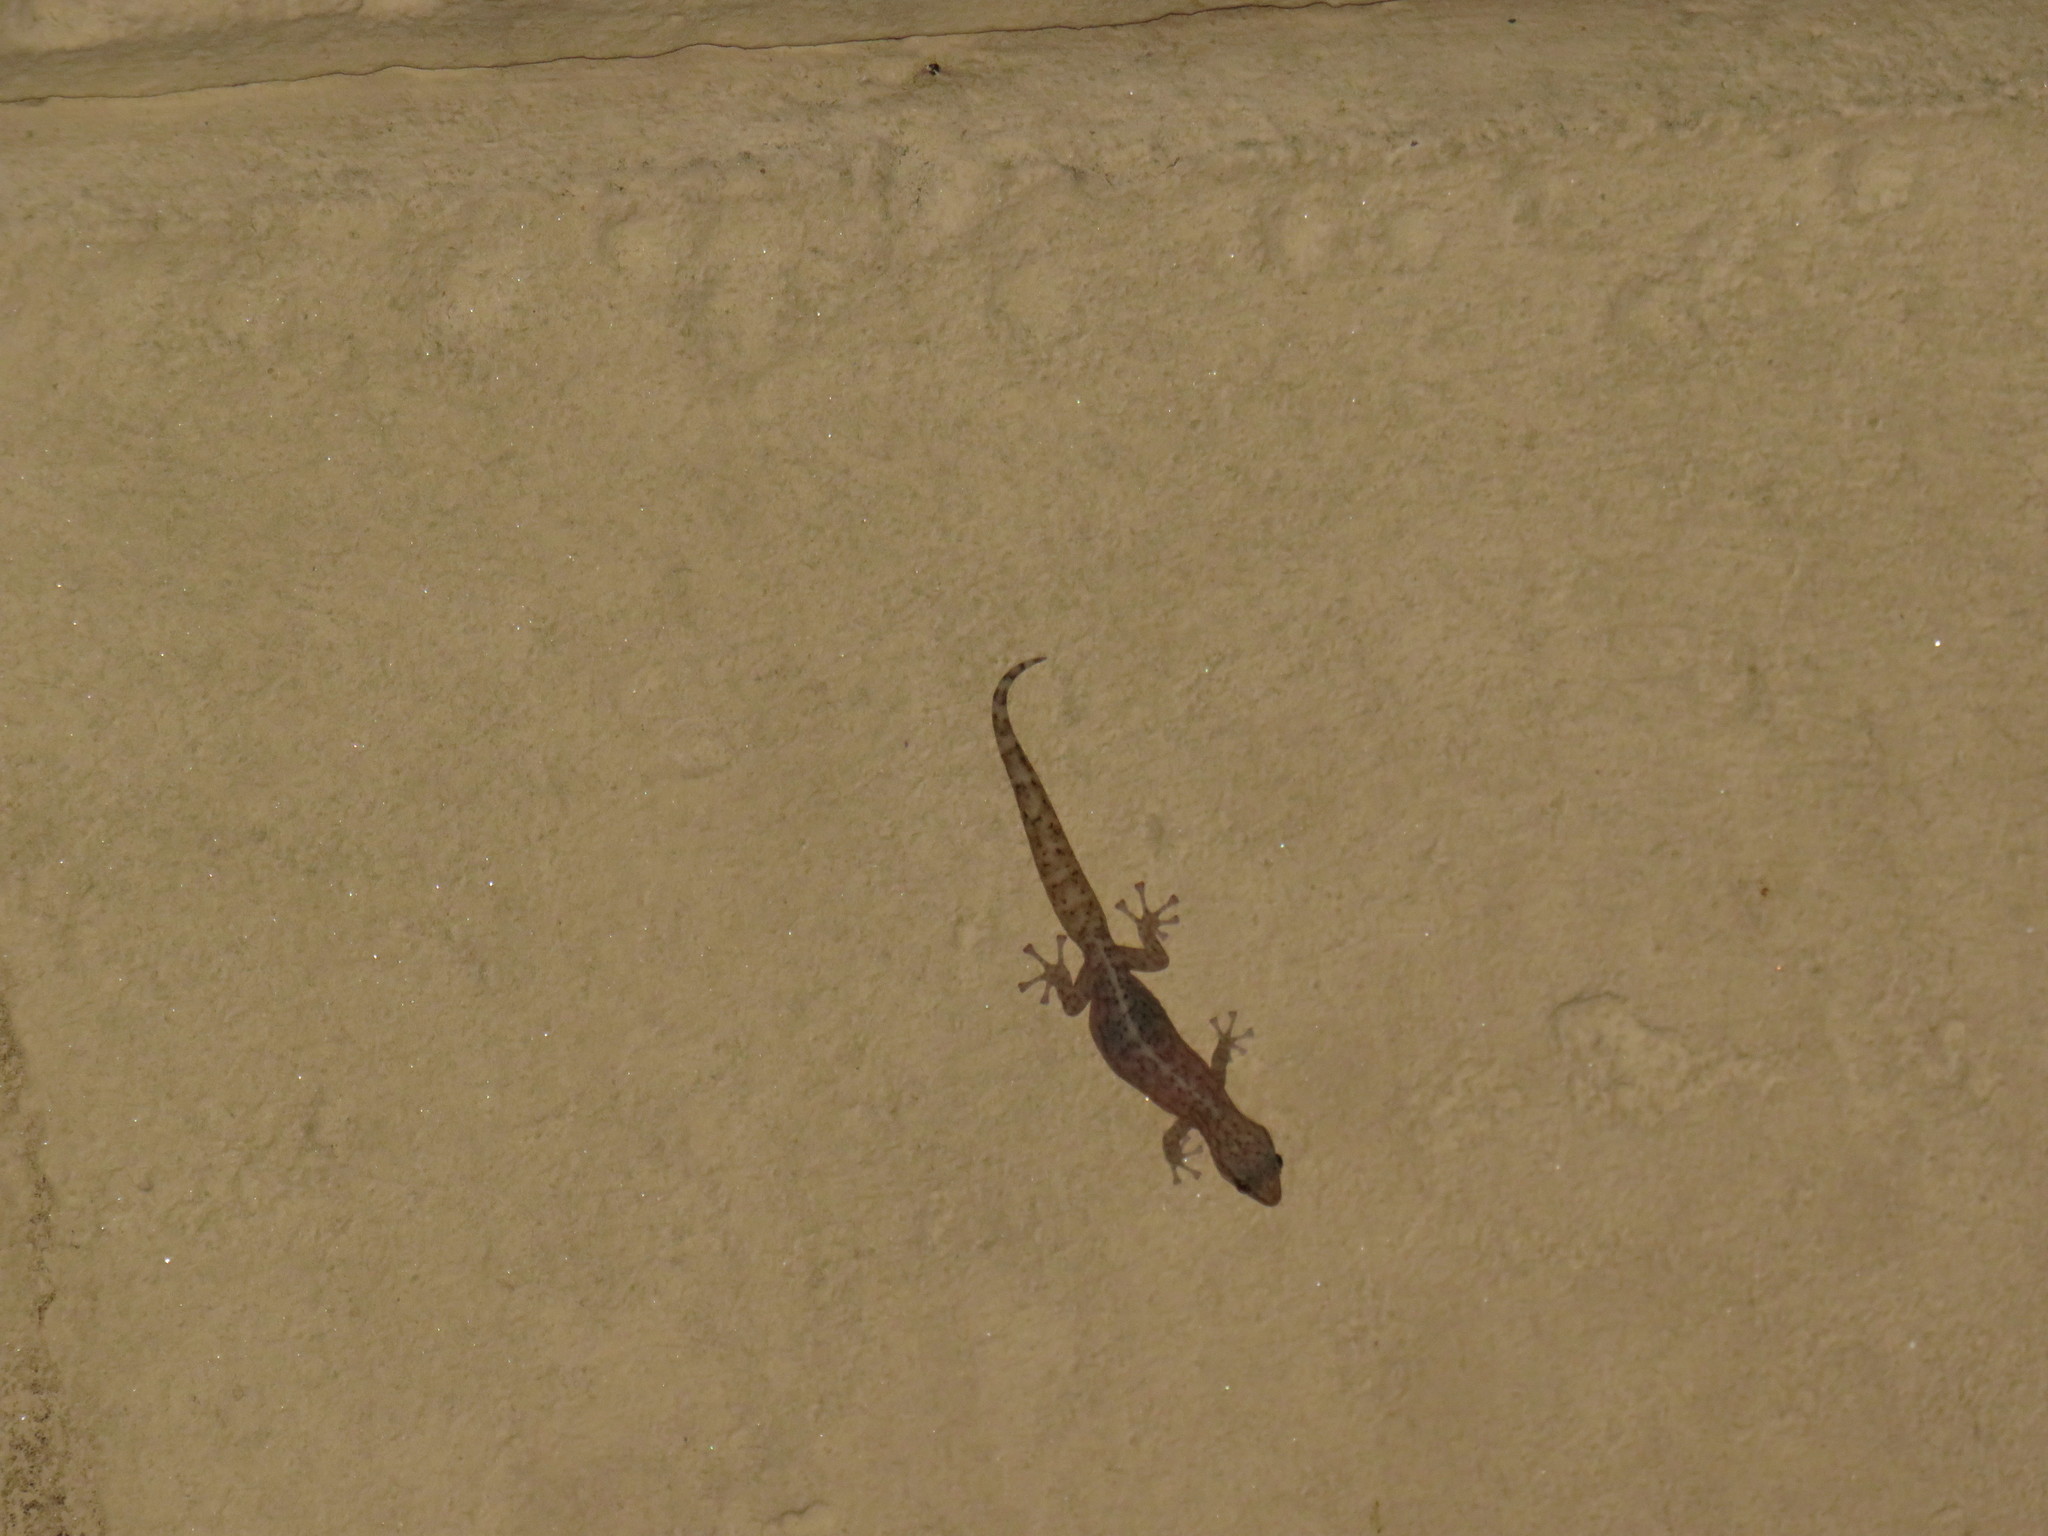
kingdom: Animalia
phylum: Chordata
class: Squamata
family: Gekkonidae
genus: Afrogecko
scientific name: Afrogecko porphyreus
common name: Marbled leaf-toed gecko
